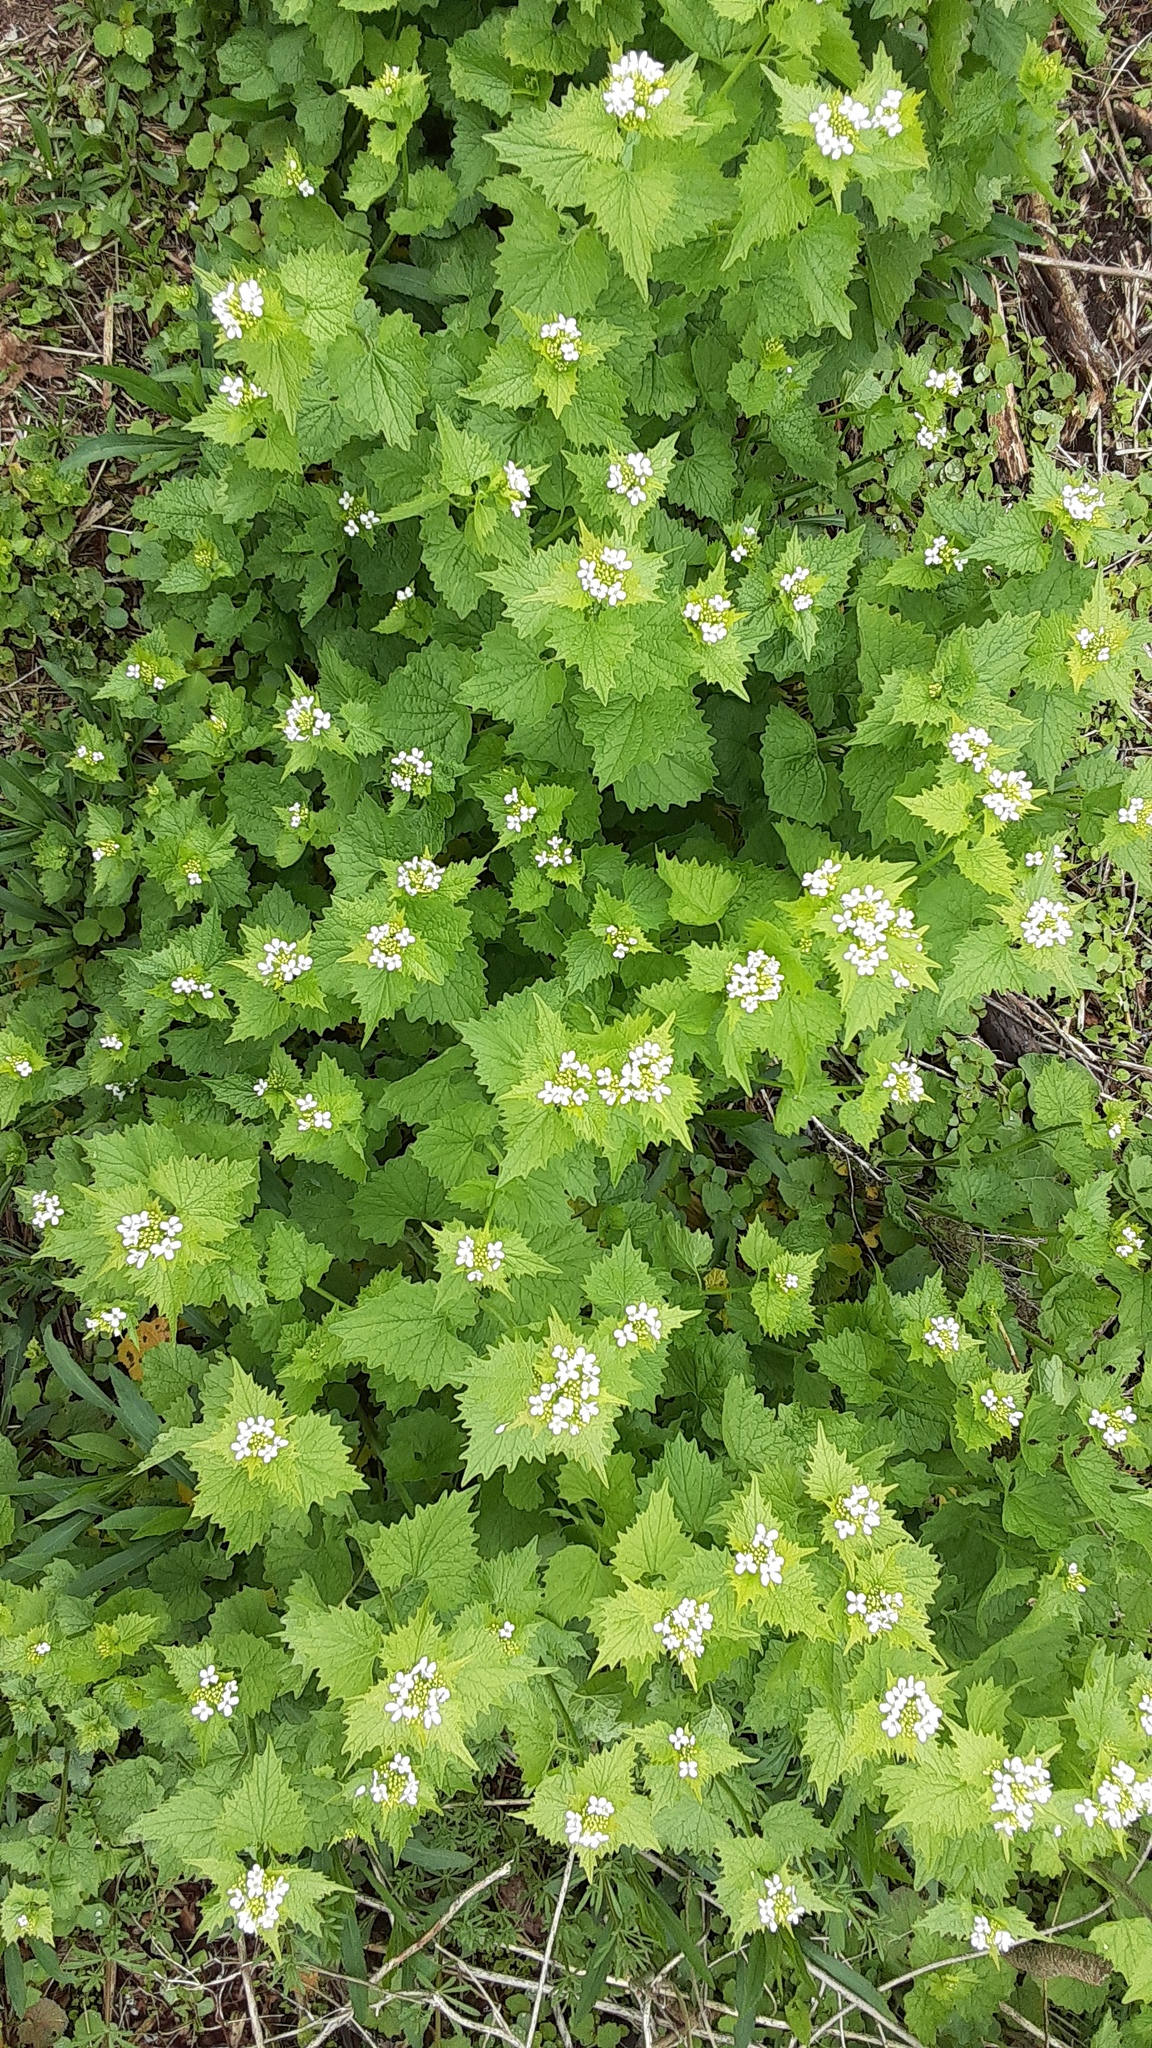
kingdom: Plantae
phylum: Tracheophyta
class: Magnoliopsida
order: Brassicales
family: Brassicaceae
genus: Alliaria
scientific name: Alliaria petiolata
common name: Garlic mustard
